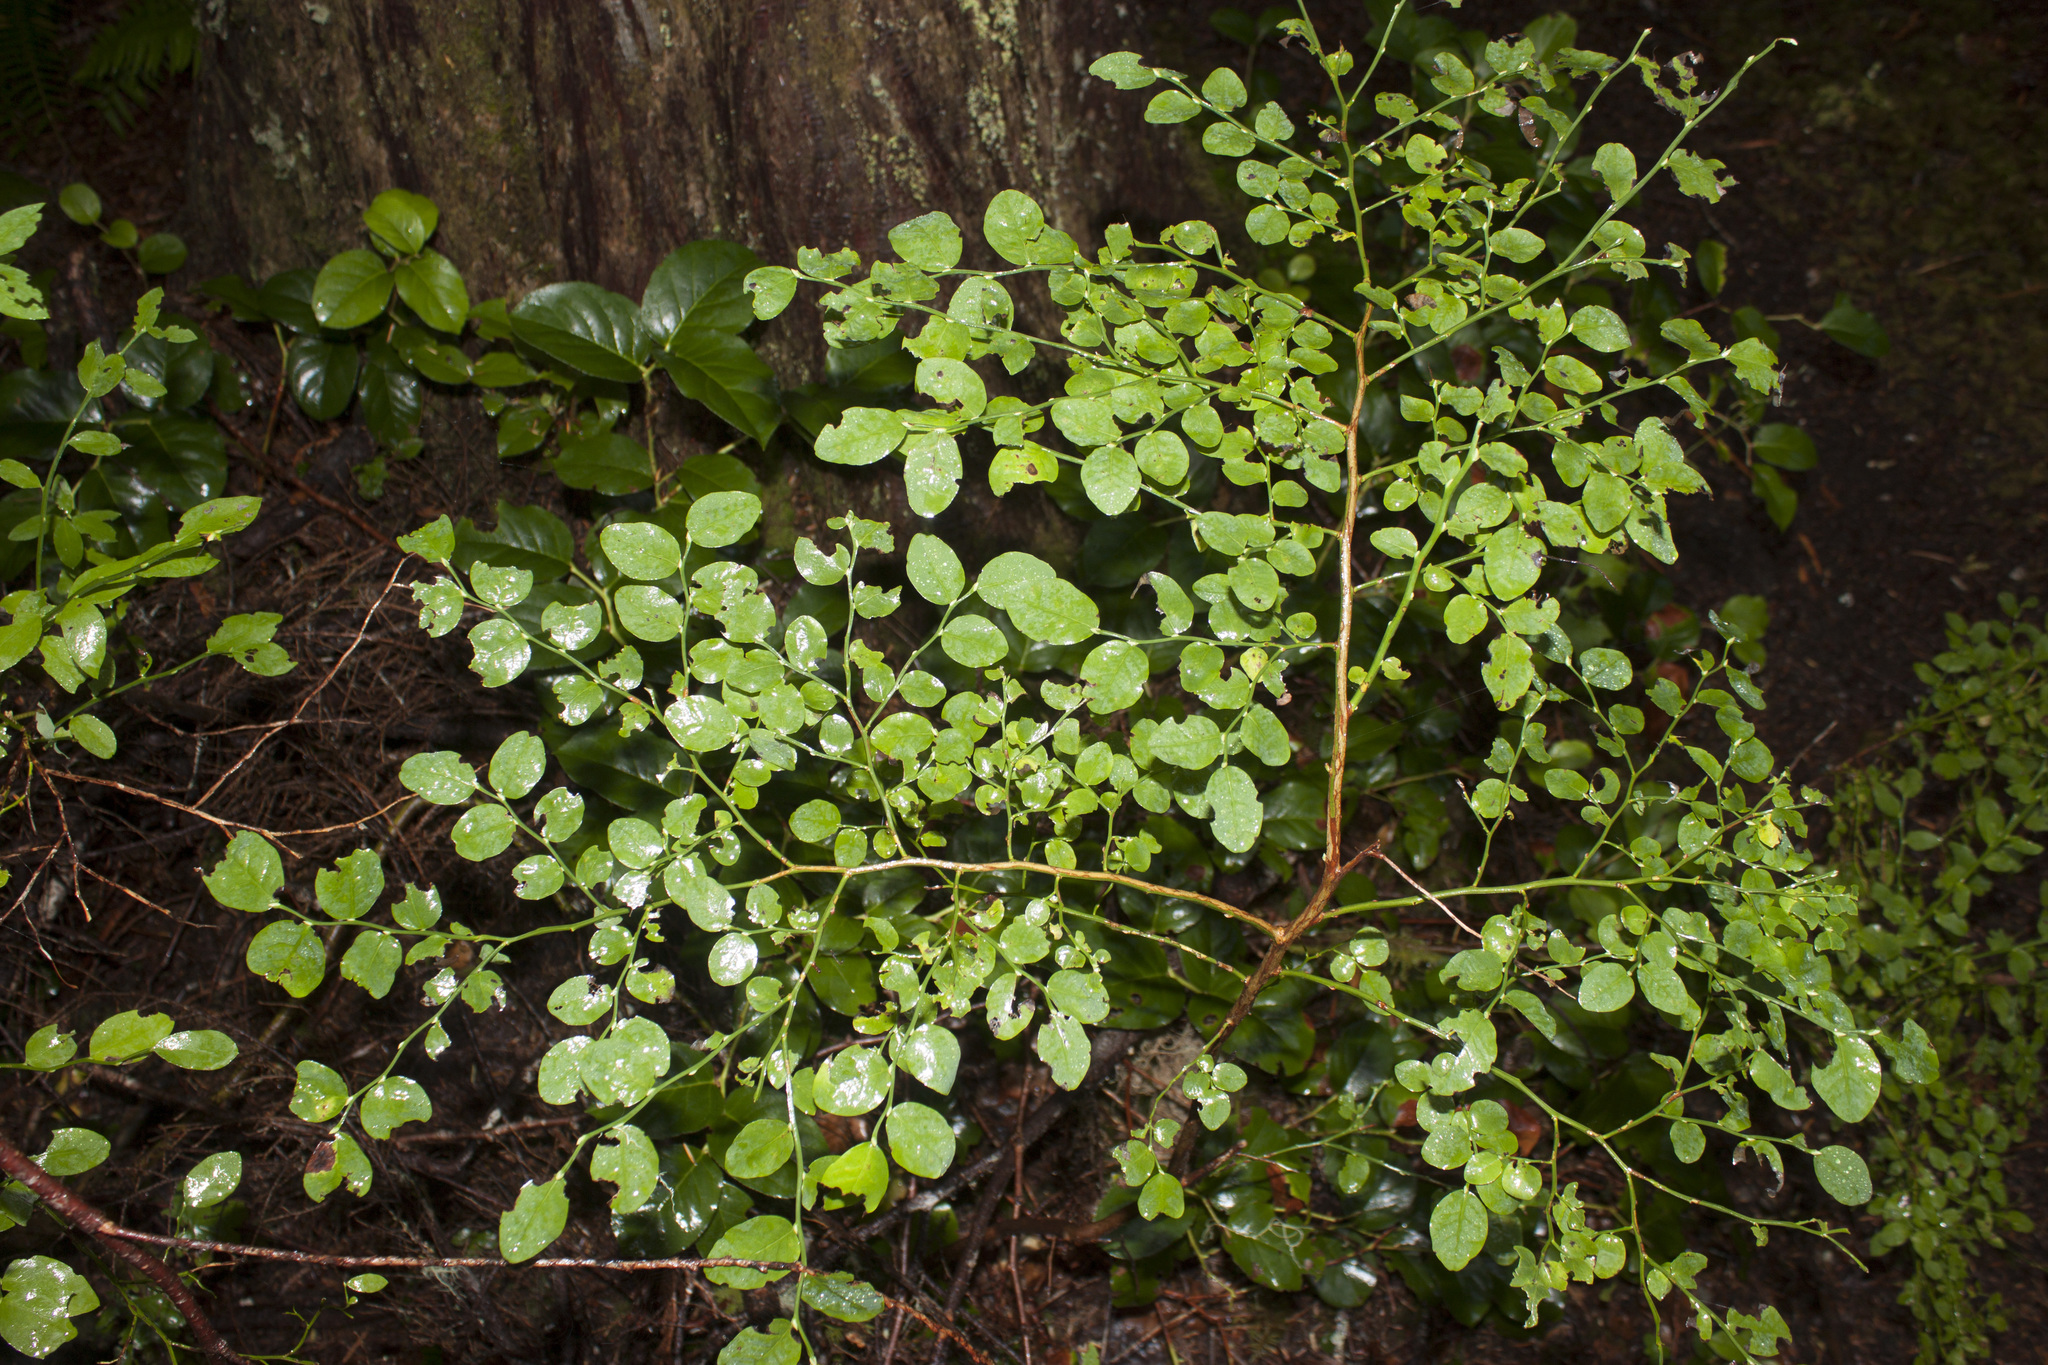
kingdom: Plantae
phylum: Tracheophyta
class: Magnoliopsida
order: Ericales
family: Ericaceae
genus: Vaccinium
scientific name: Vaccinium parvifolium
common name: Red-huckleberry
